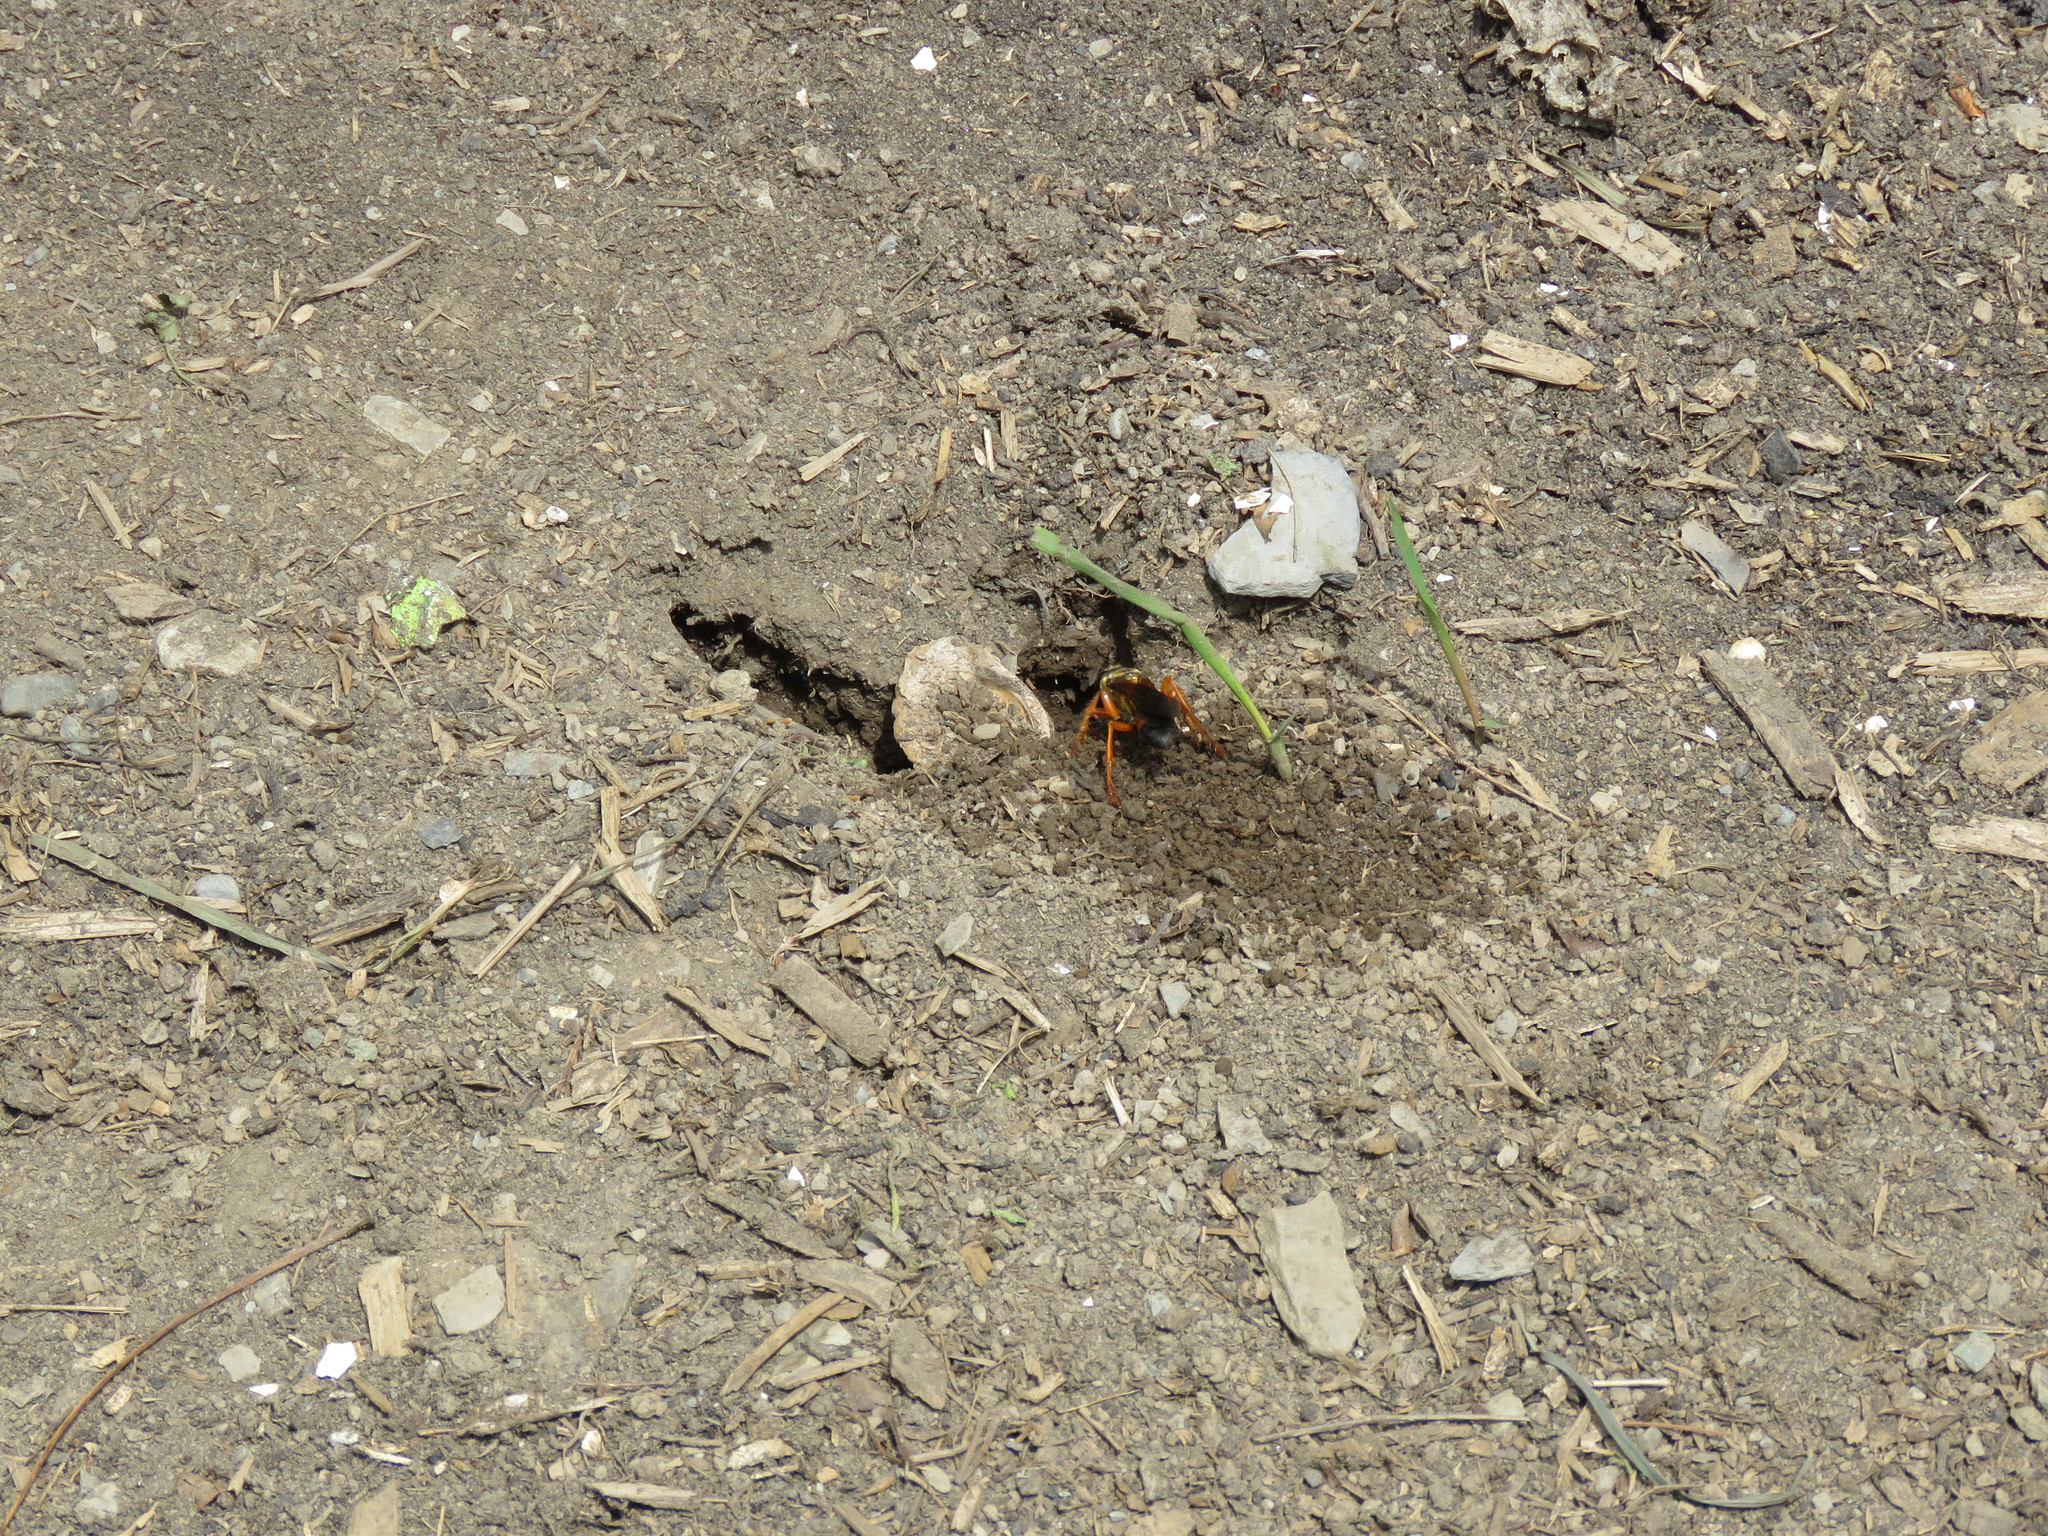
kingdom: Animalia
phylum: Arthropoda
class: Insecta
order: Hymenoptera
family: Sphecidae
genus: Sphex
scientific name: Sphex ichneumoneus
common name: Great golden digger wasp
